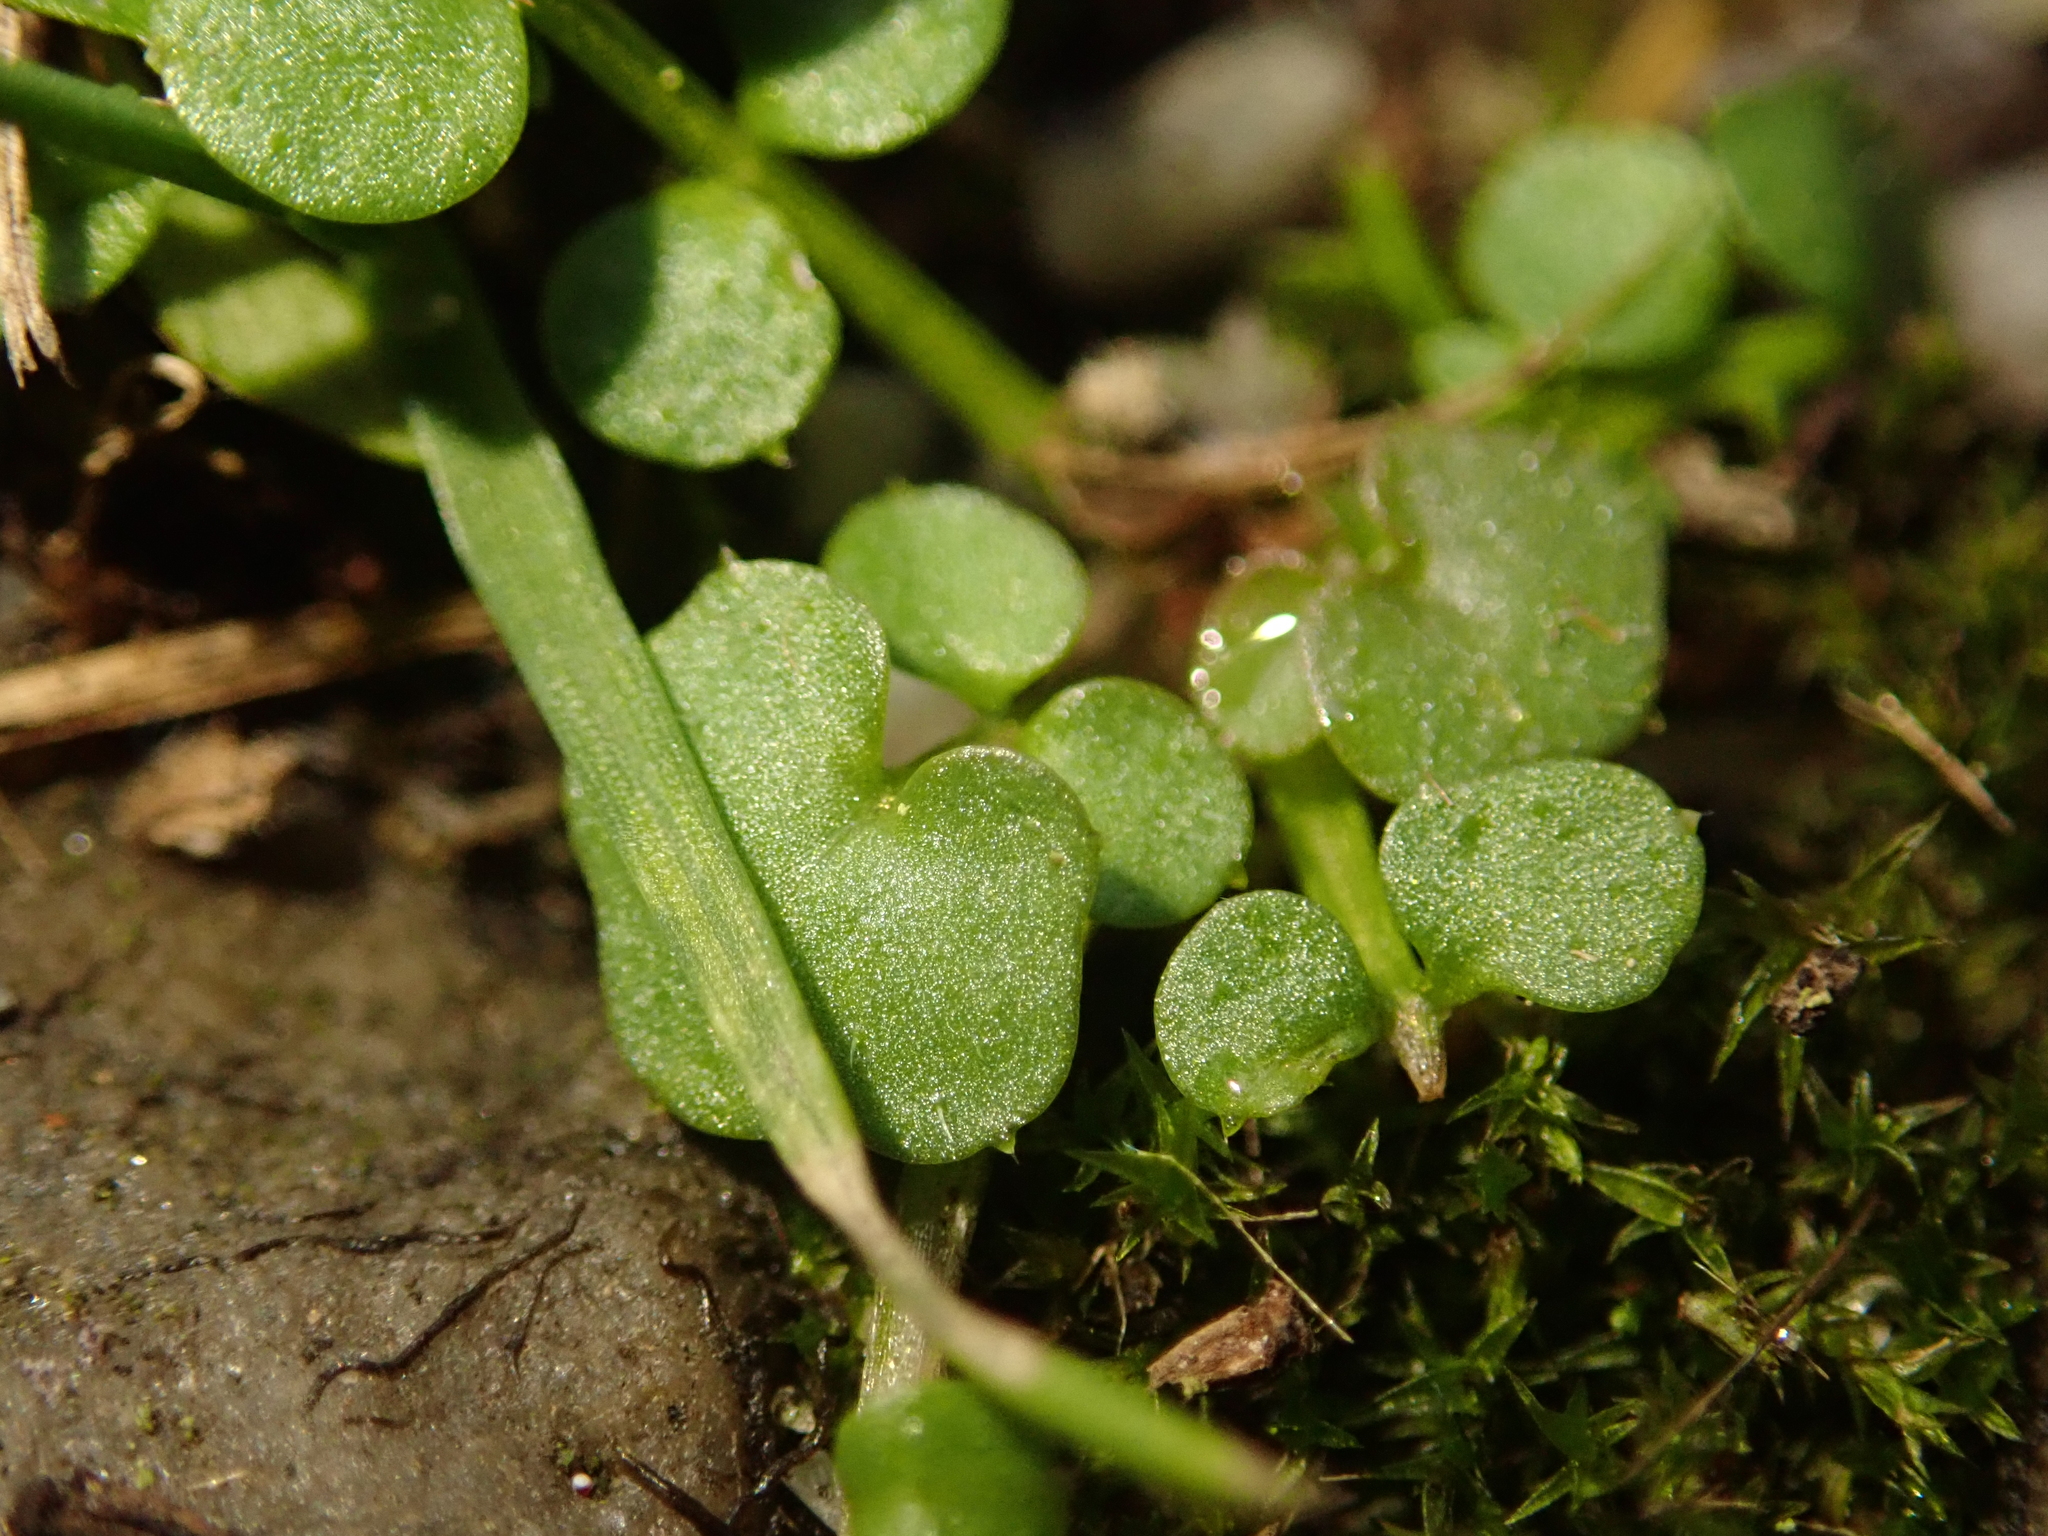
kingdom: Plantae
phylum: Tracheophyta
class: Magnoliopsida
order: Brassicales
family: Brassicaceae
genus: Cardamine
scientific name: Cardamine hirsuta
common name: Hairy bittercress
